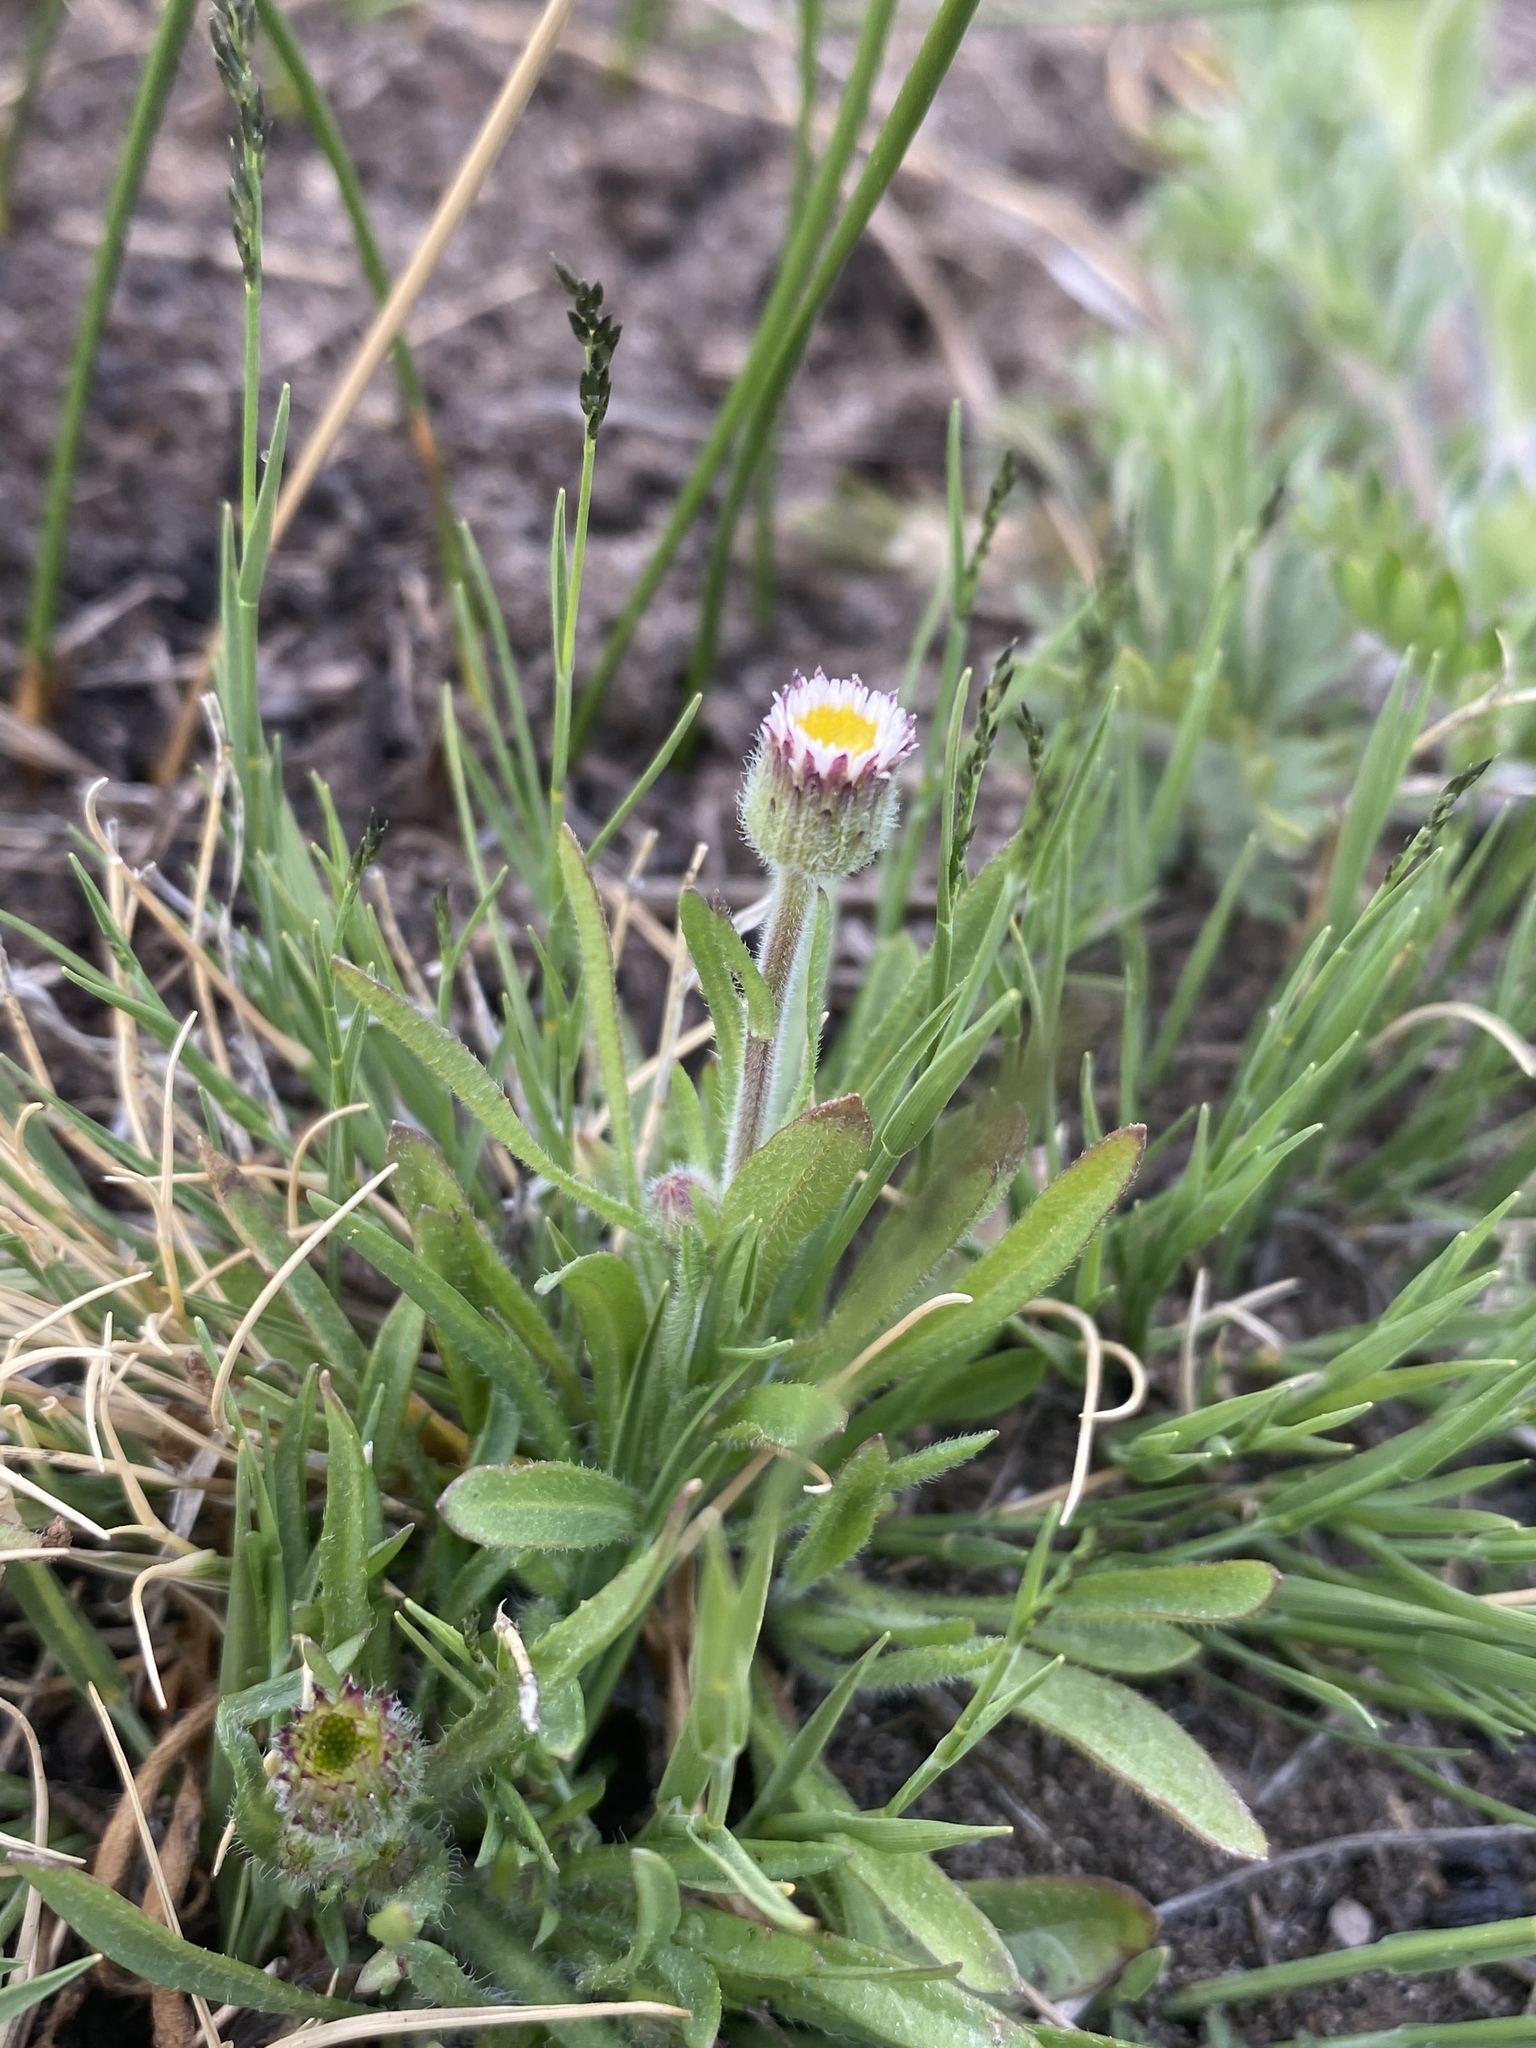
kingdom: Plantae
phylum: Tracheophyta
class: Magnoliopsida
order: Asterales
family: Asteraceae
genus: Erigeron
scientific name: Erigeron lonchophyllus
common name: Short-ray fleabane
